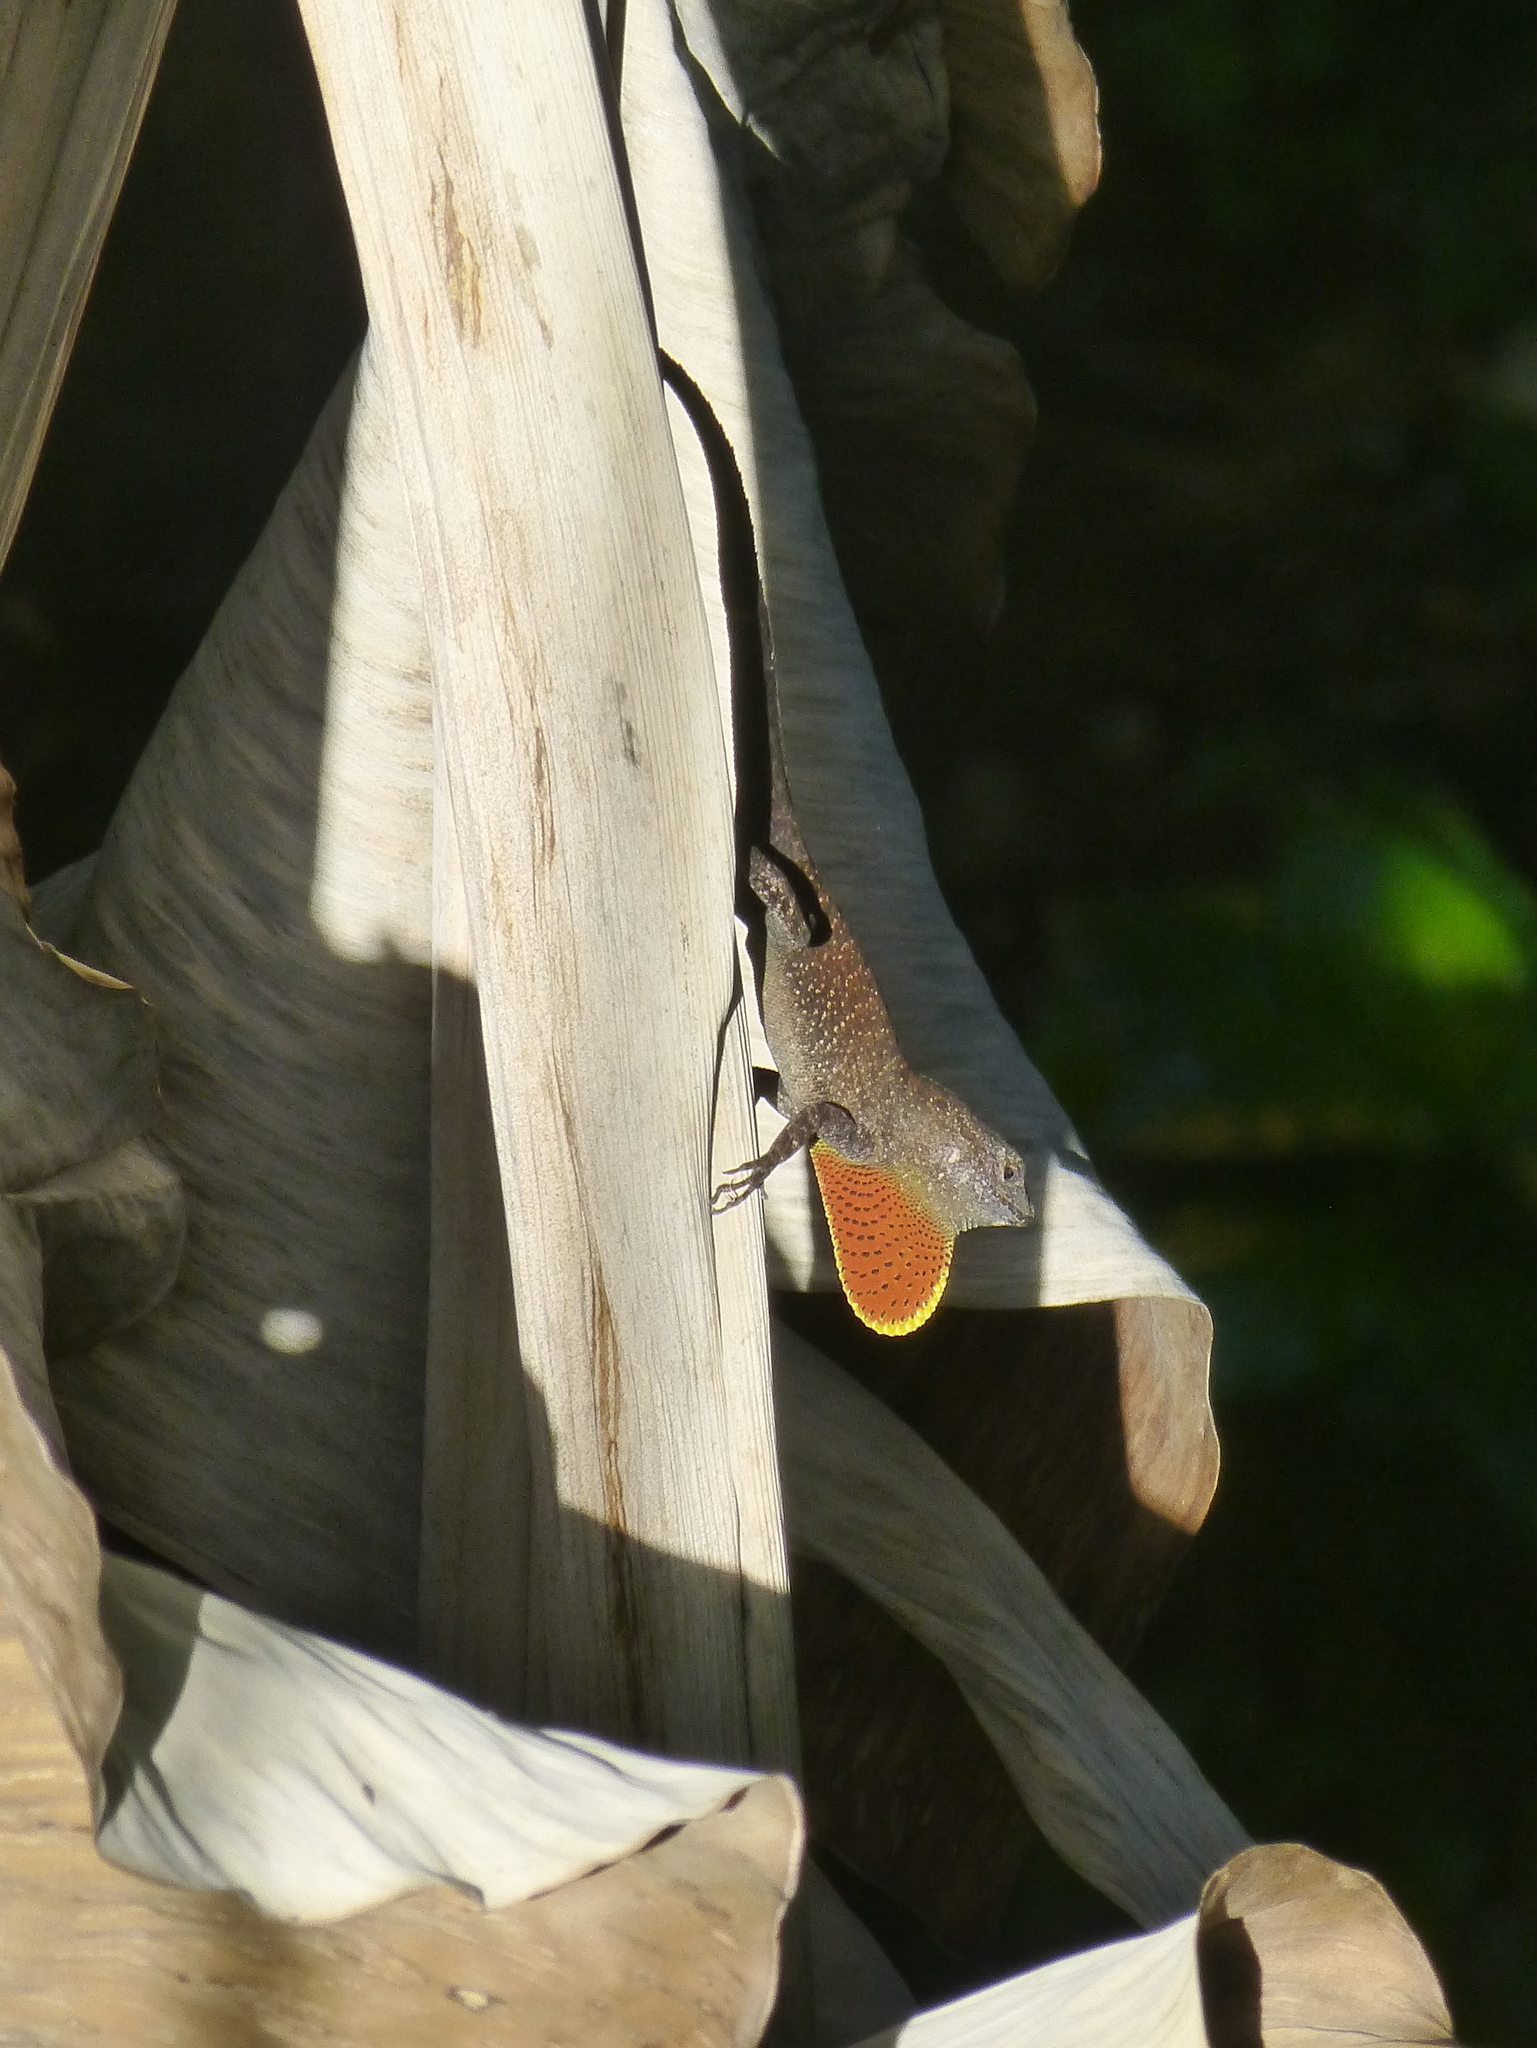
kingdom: Animalia
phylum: Chordata
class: Squamata
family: Dactyloidae
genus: Anolis
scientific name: Anolis sagrei
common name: Brown anole
